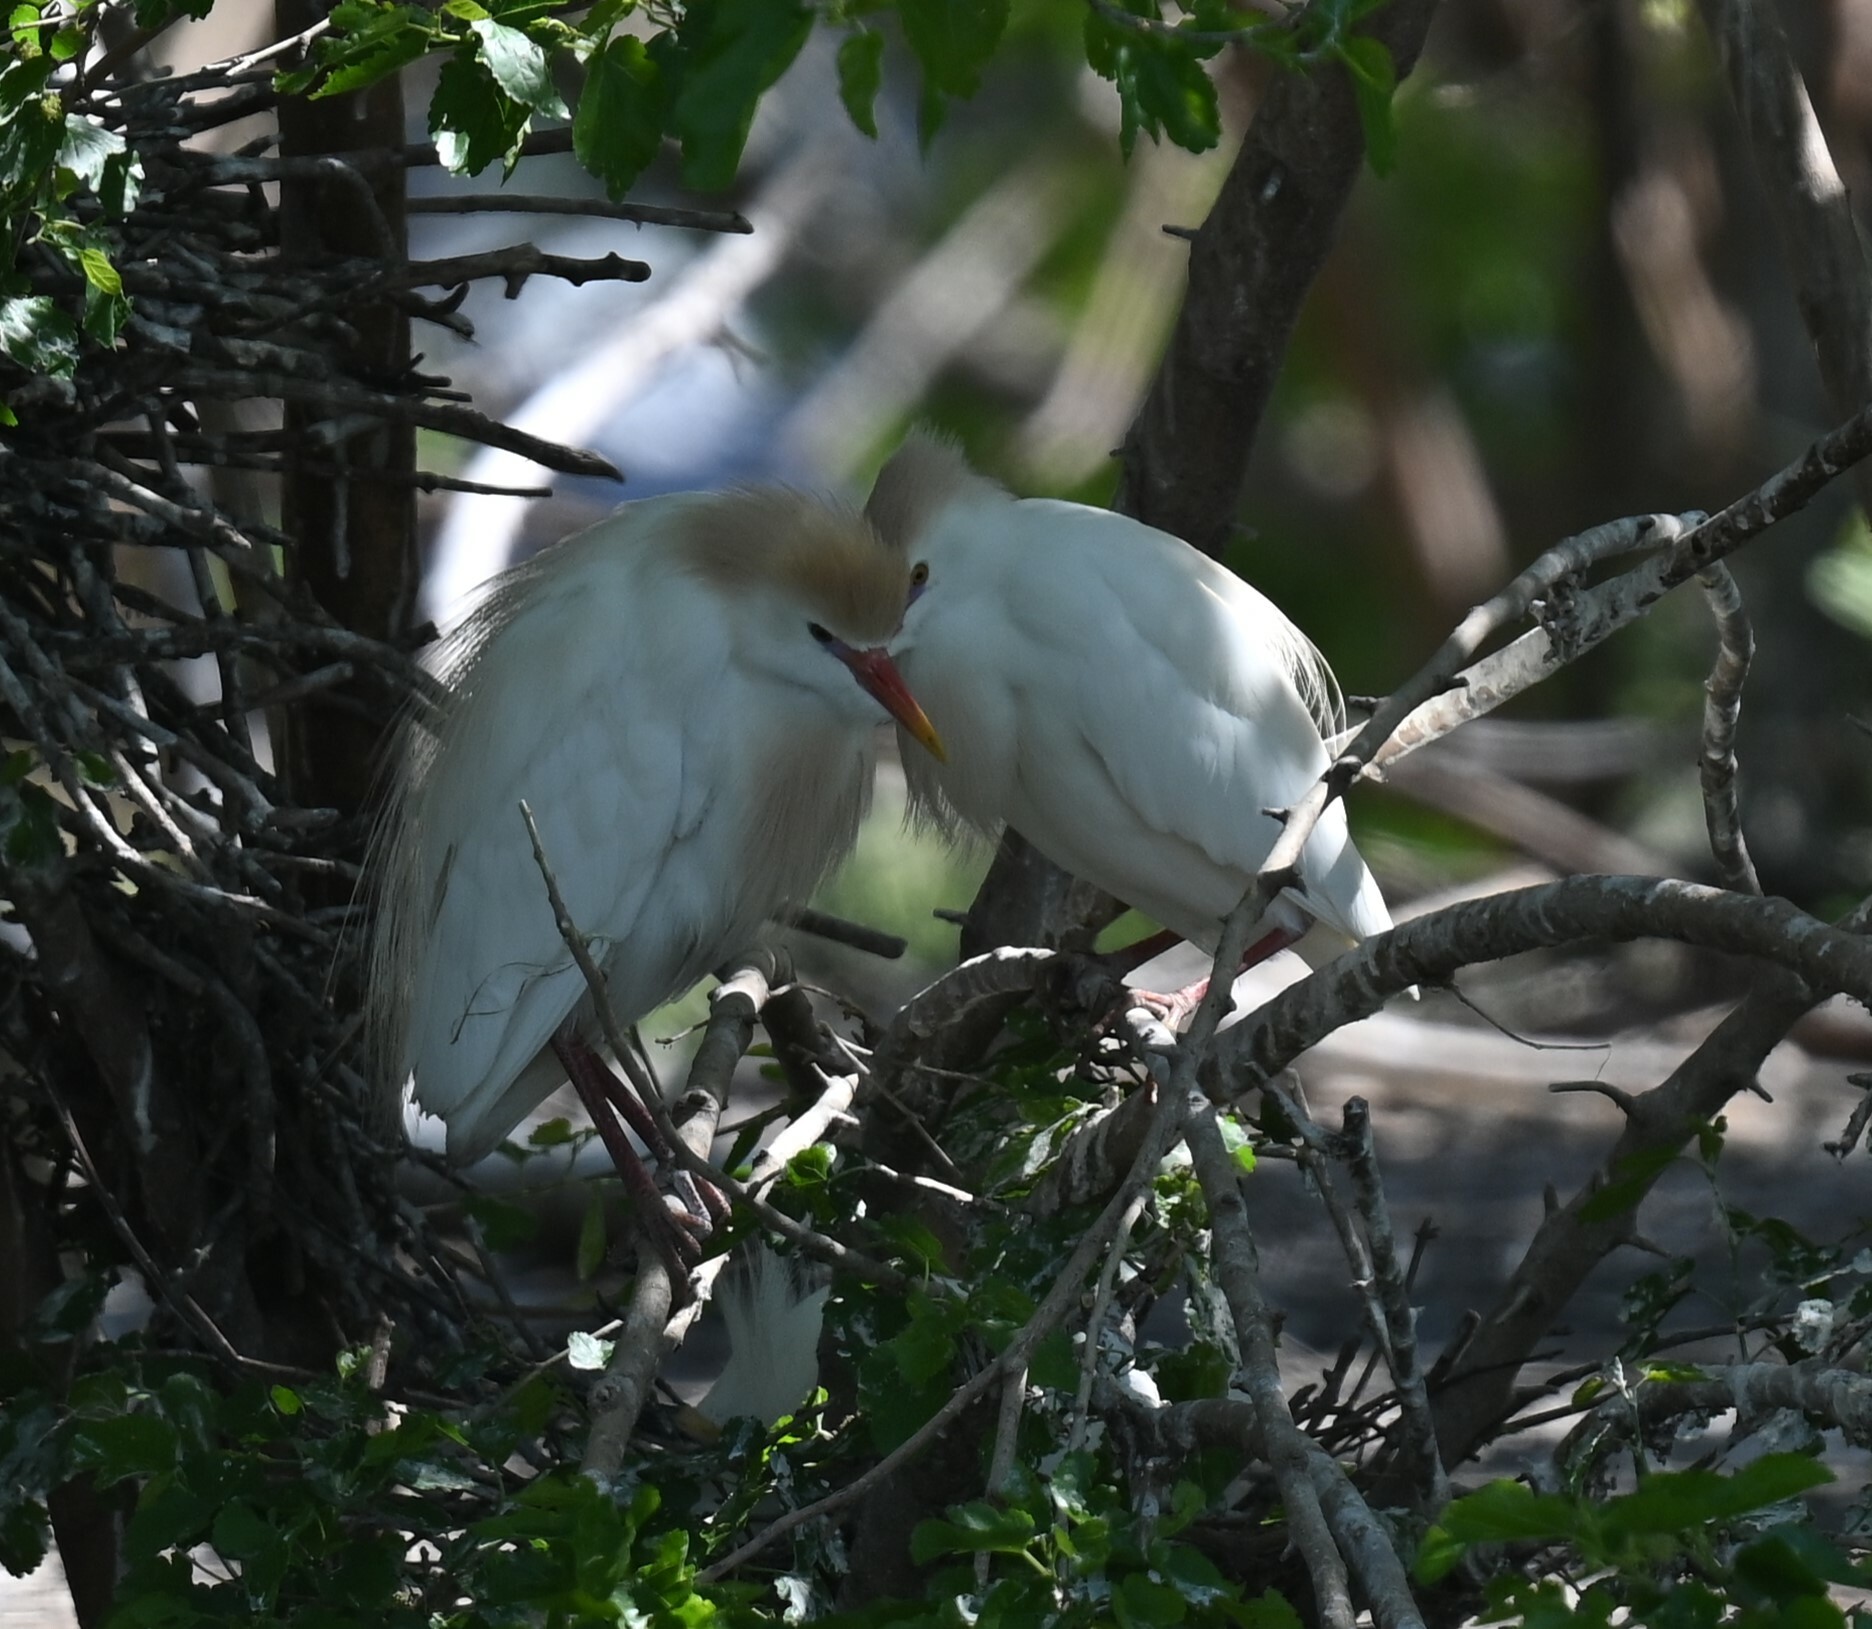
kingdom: Animalia
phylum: Chordata
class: Aves
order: Pelecaniformes
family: Ardeidae
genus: Bubulcus
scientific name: Bubulcus ibis
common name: Cattle egret
